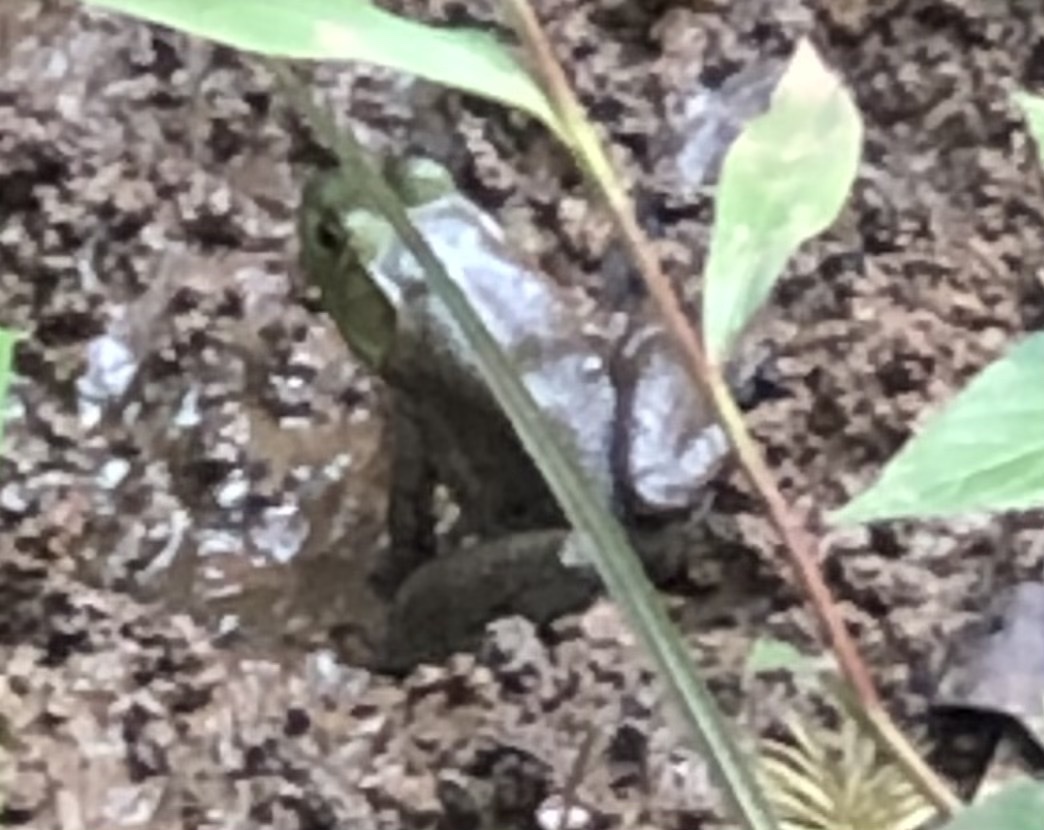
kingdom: Animalia
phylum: Chordata
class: Amphibia
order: Anura
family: Ranidae
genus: Lithobates
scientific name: Lithobates catesbeianus
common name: American bullfrog
